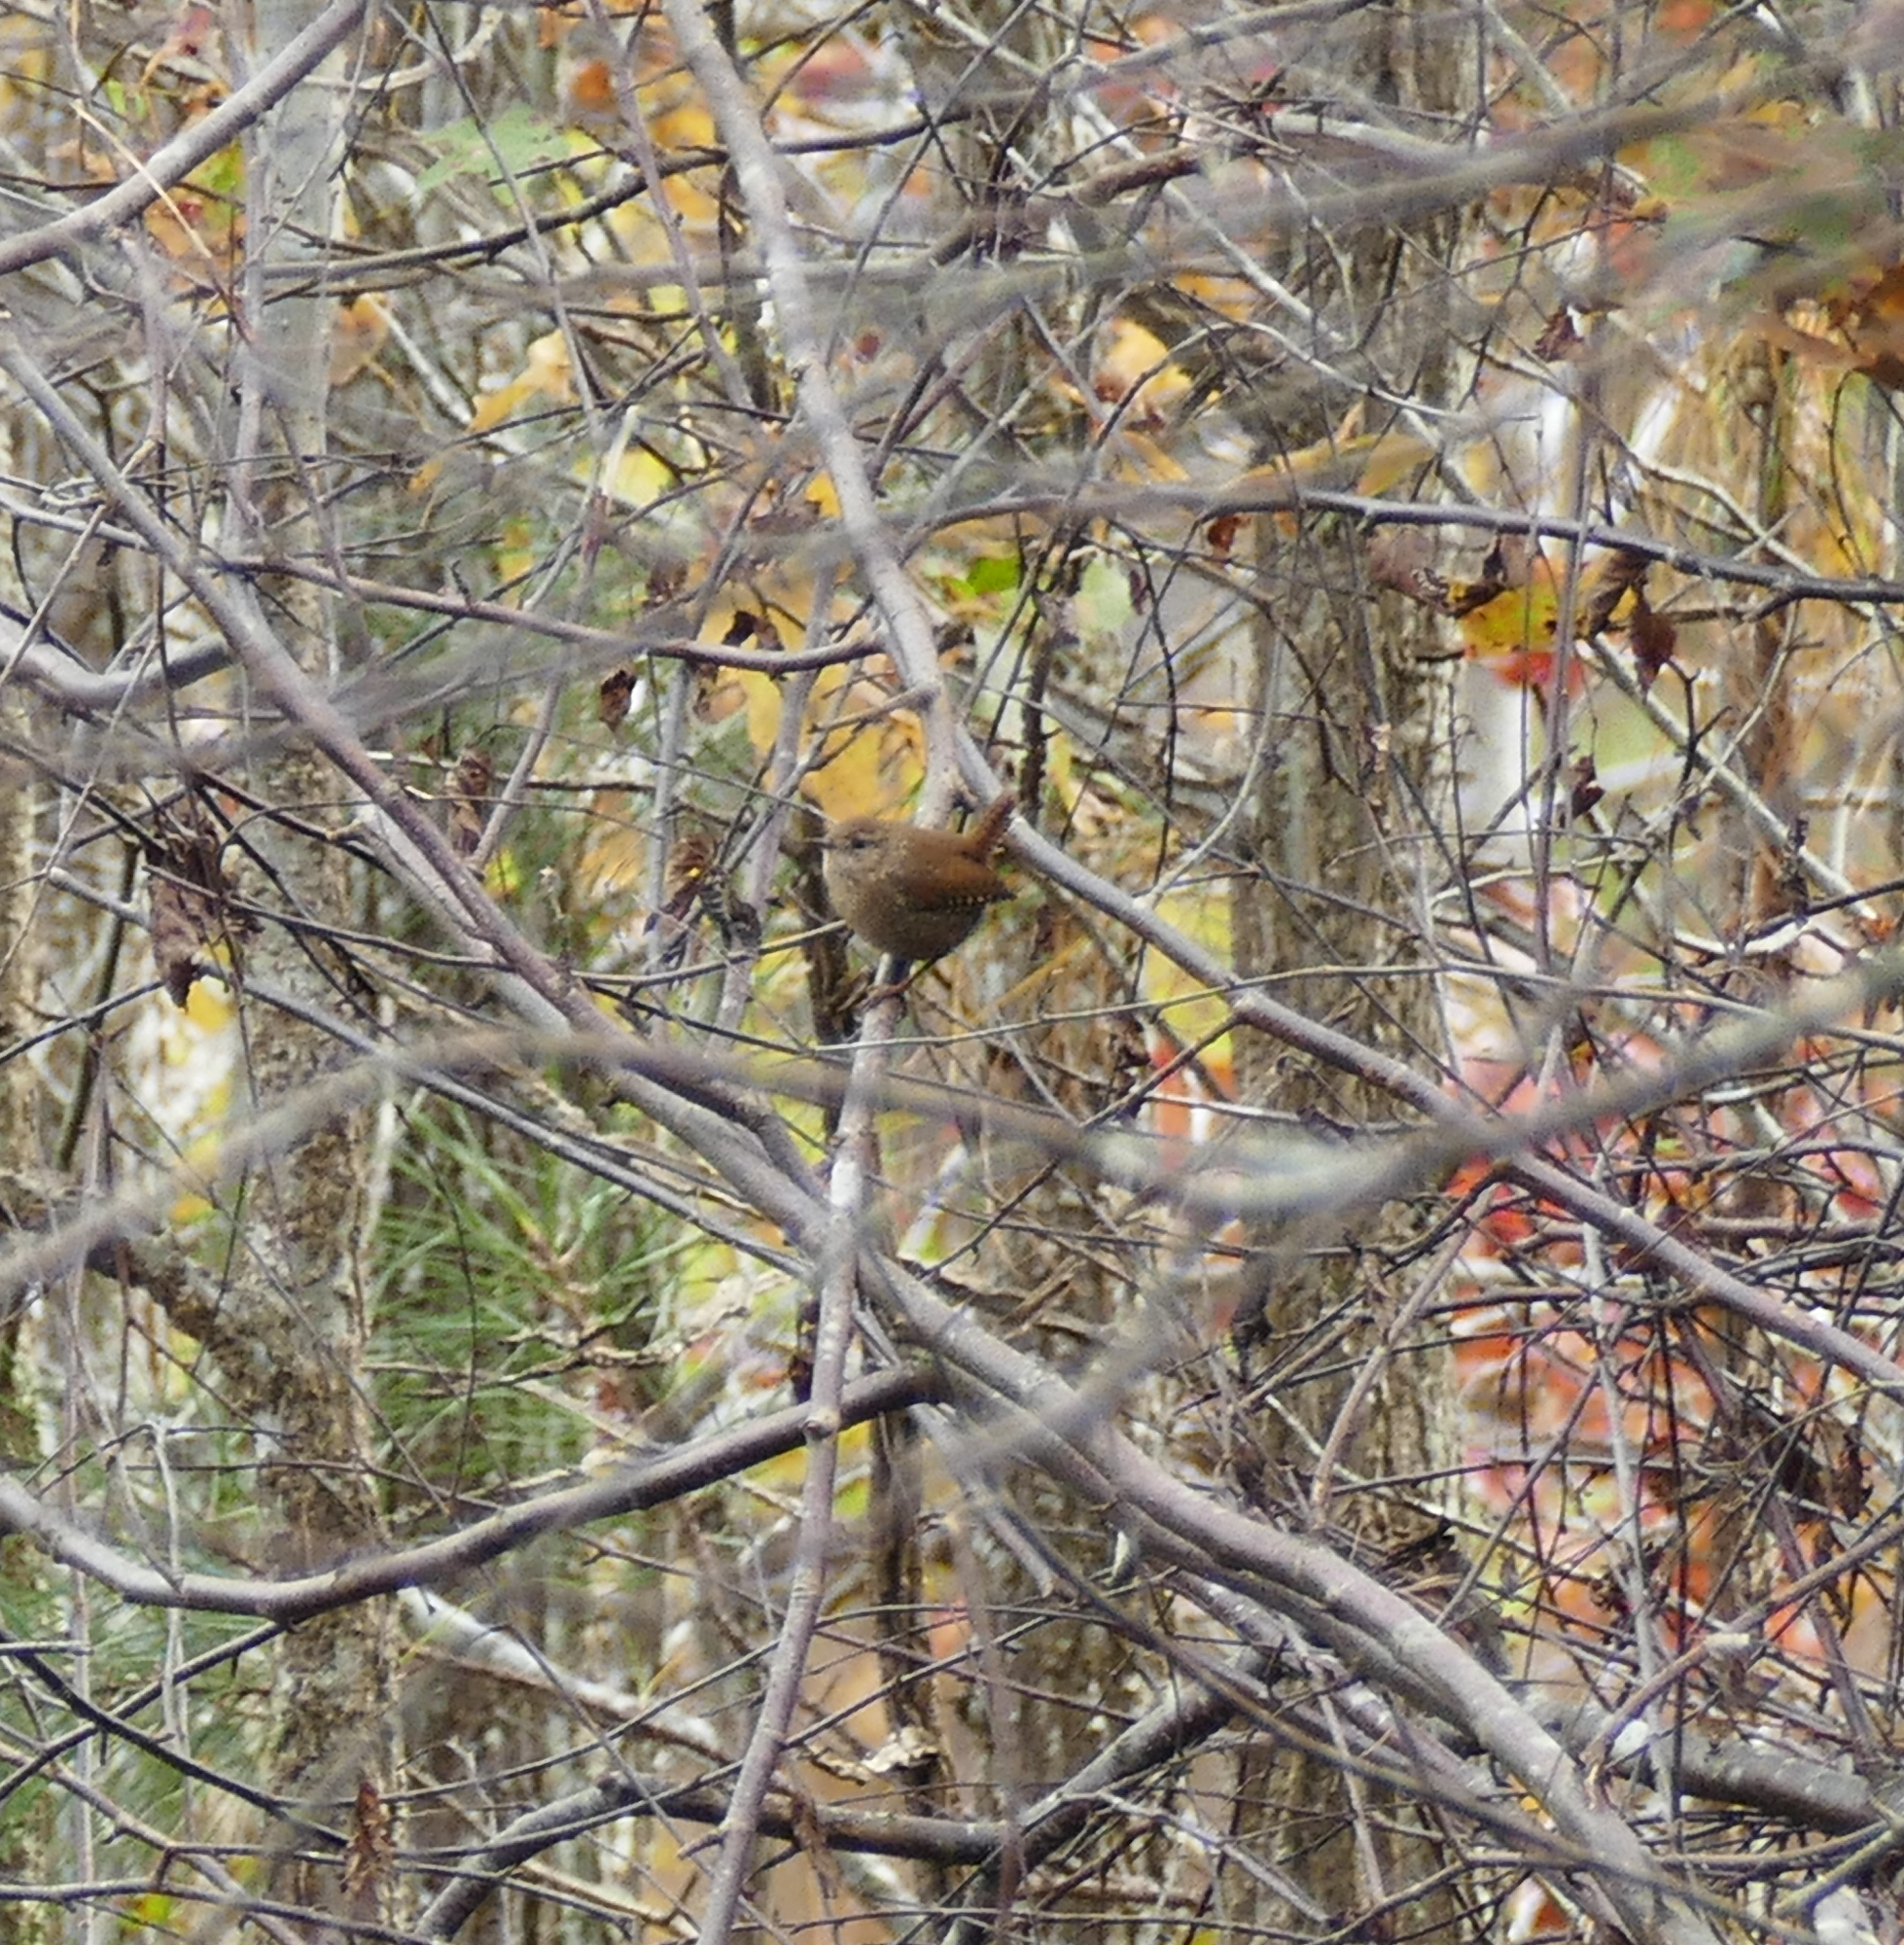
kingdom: Animalia
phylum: Chordata
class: Aves
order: Passeriformes
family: Troglodytidae
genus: Troglodytes
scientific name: Troglodytes hiemalis
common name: Winter wren
